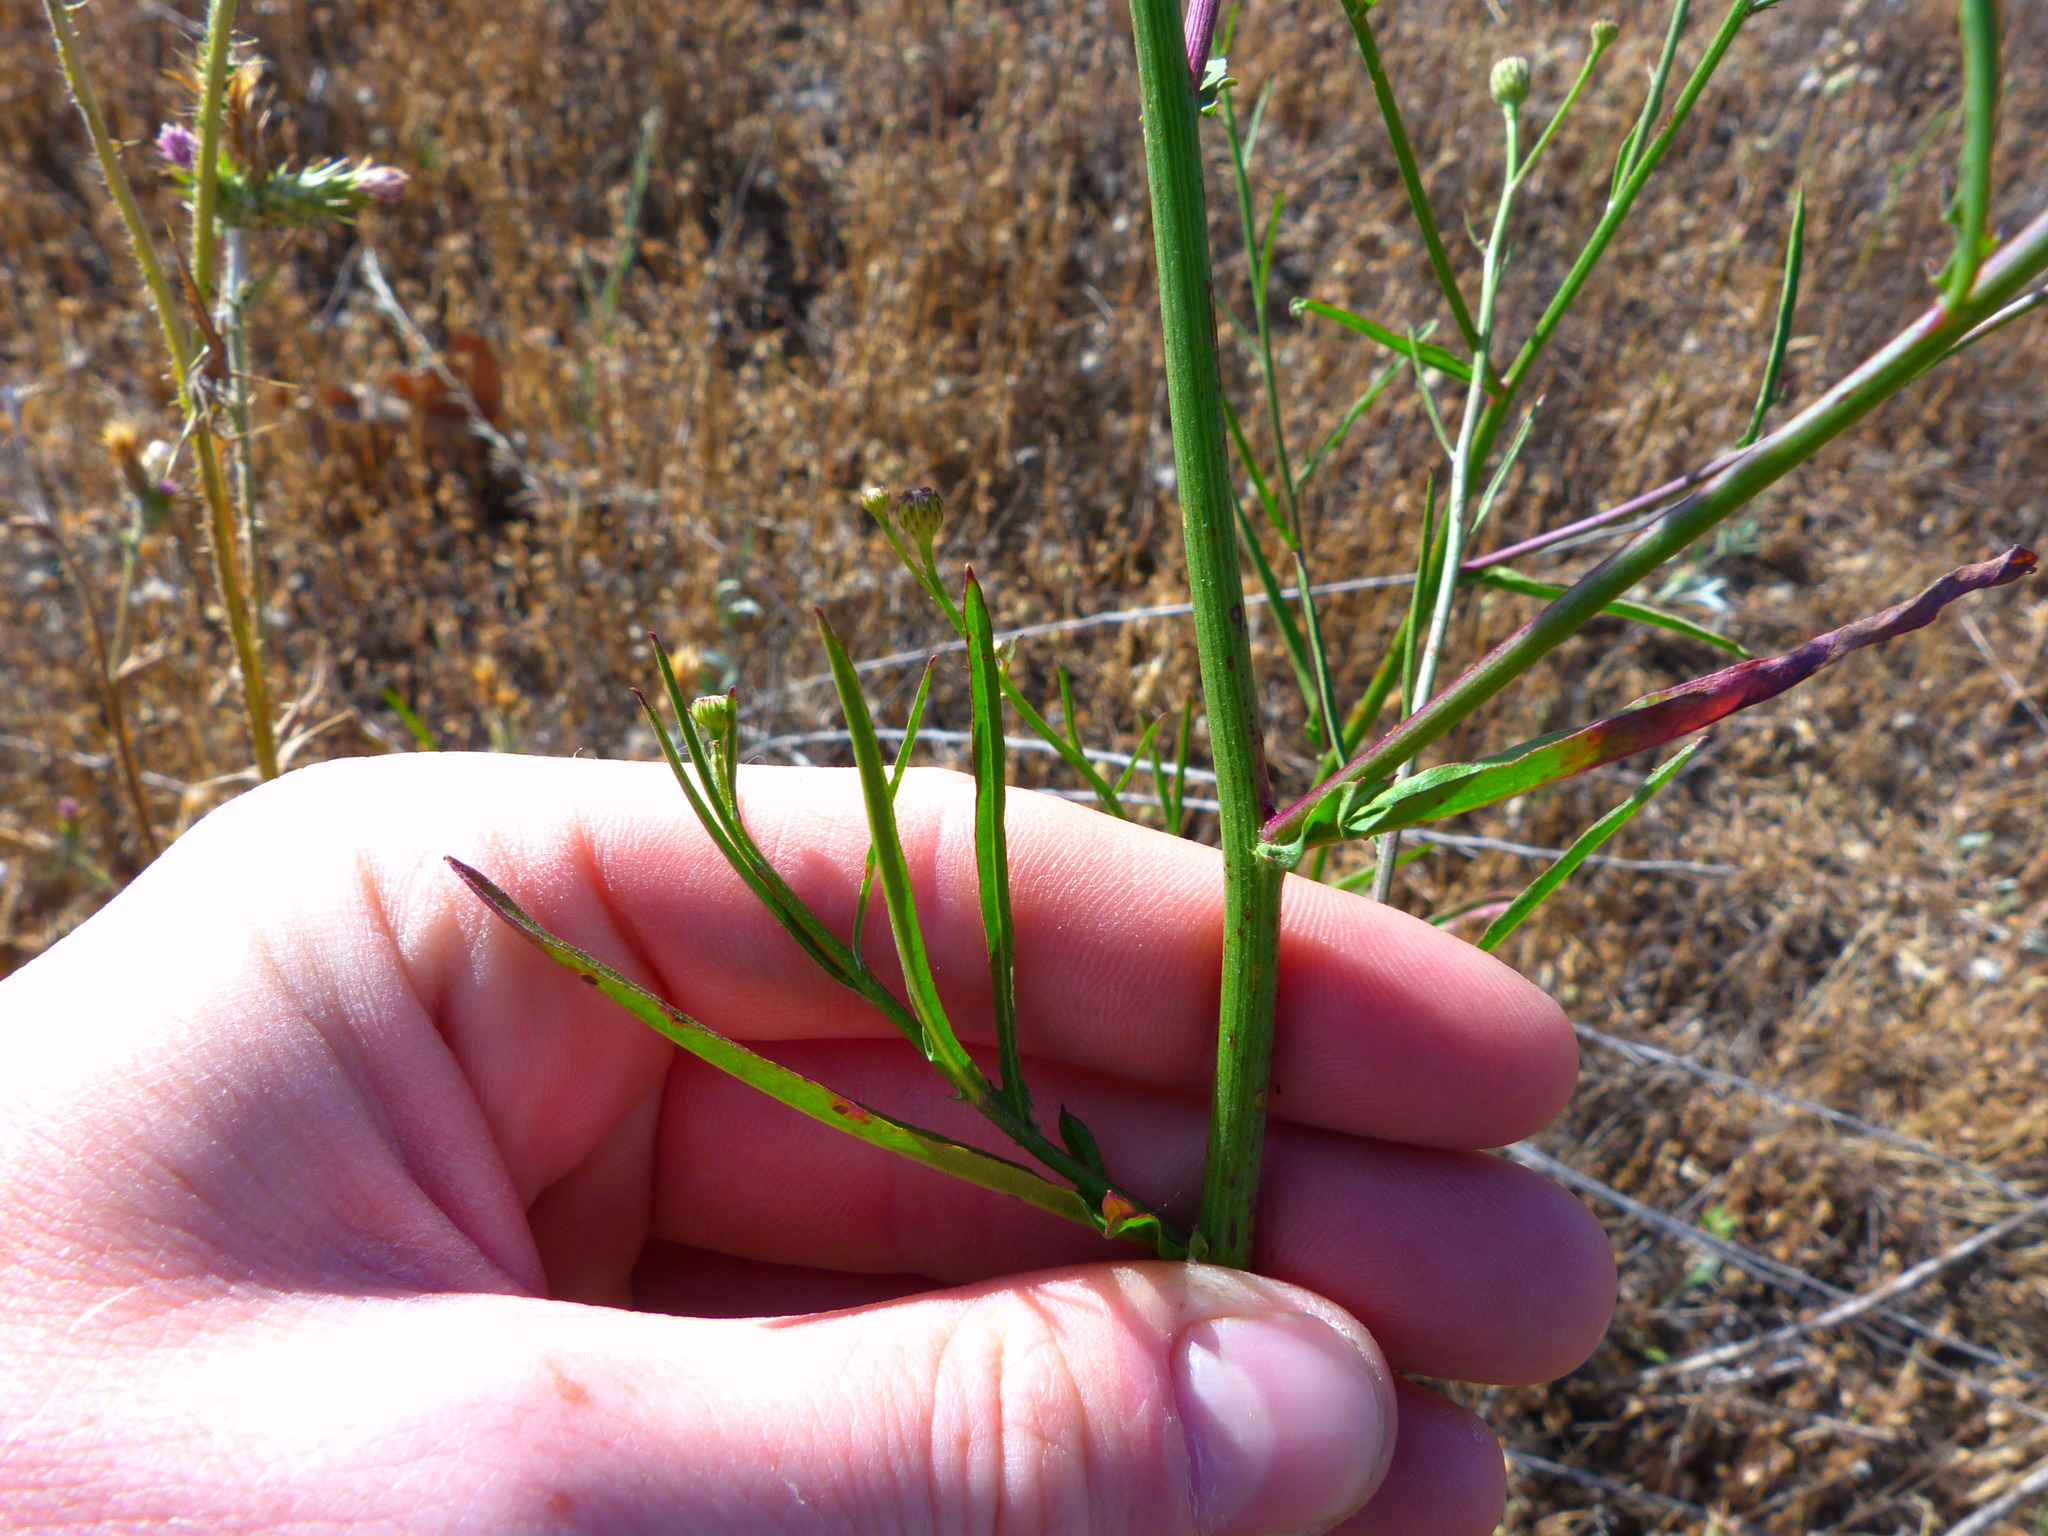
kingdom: Plantae
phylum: Tracheophyta
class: Magnoliopsida
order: Asterales
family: Asteraceae
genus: Malacothrix
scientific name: Malacothrix saxatilis
